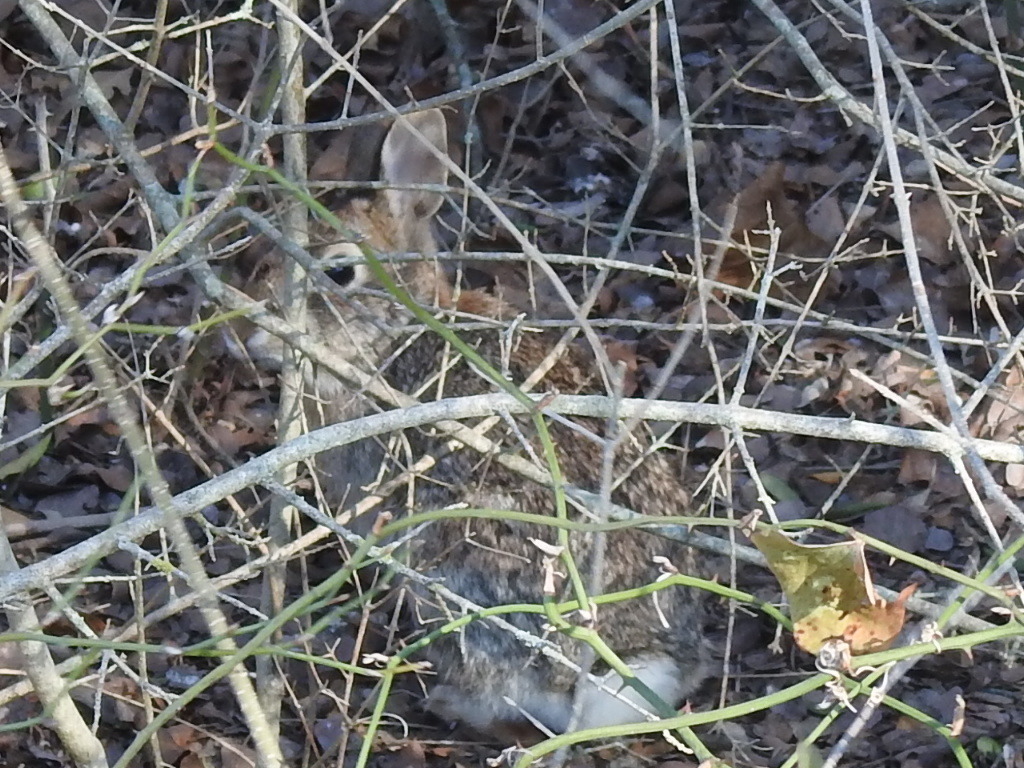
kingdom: Animalia
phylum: Chordata
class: Mammalia
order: Lagomorpha
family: Leporidae
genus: Sylvilagus
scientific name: Sylvilagus floridanus
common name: Eastern cottontail
